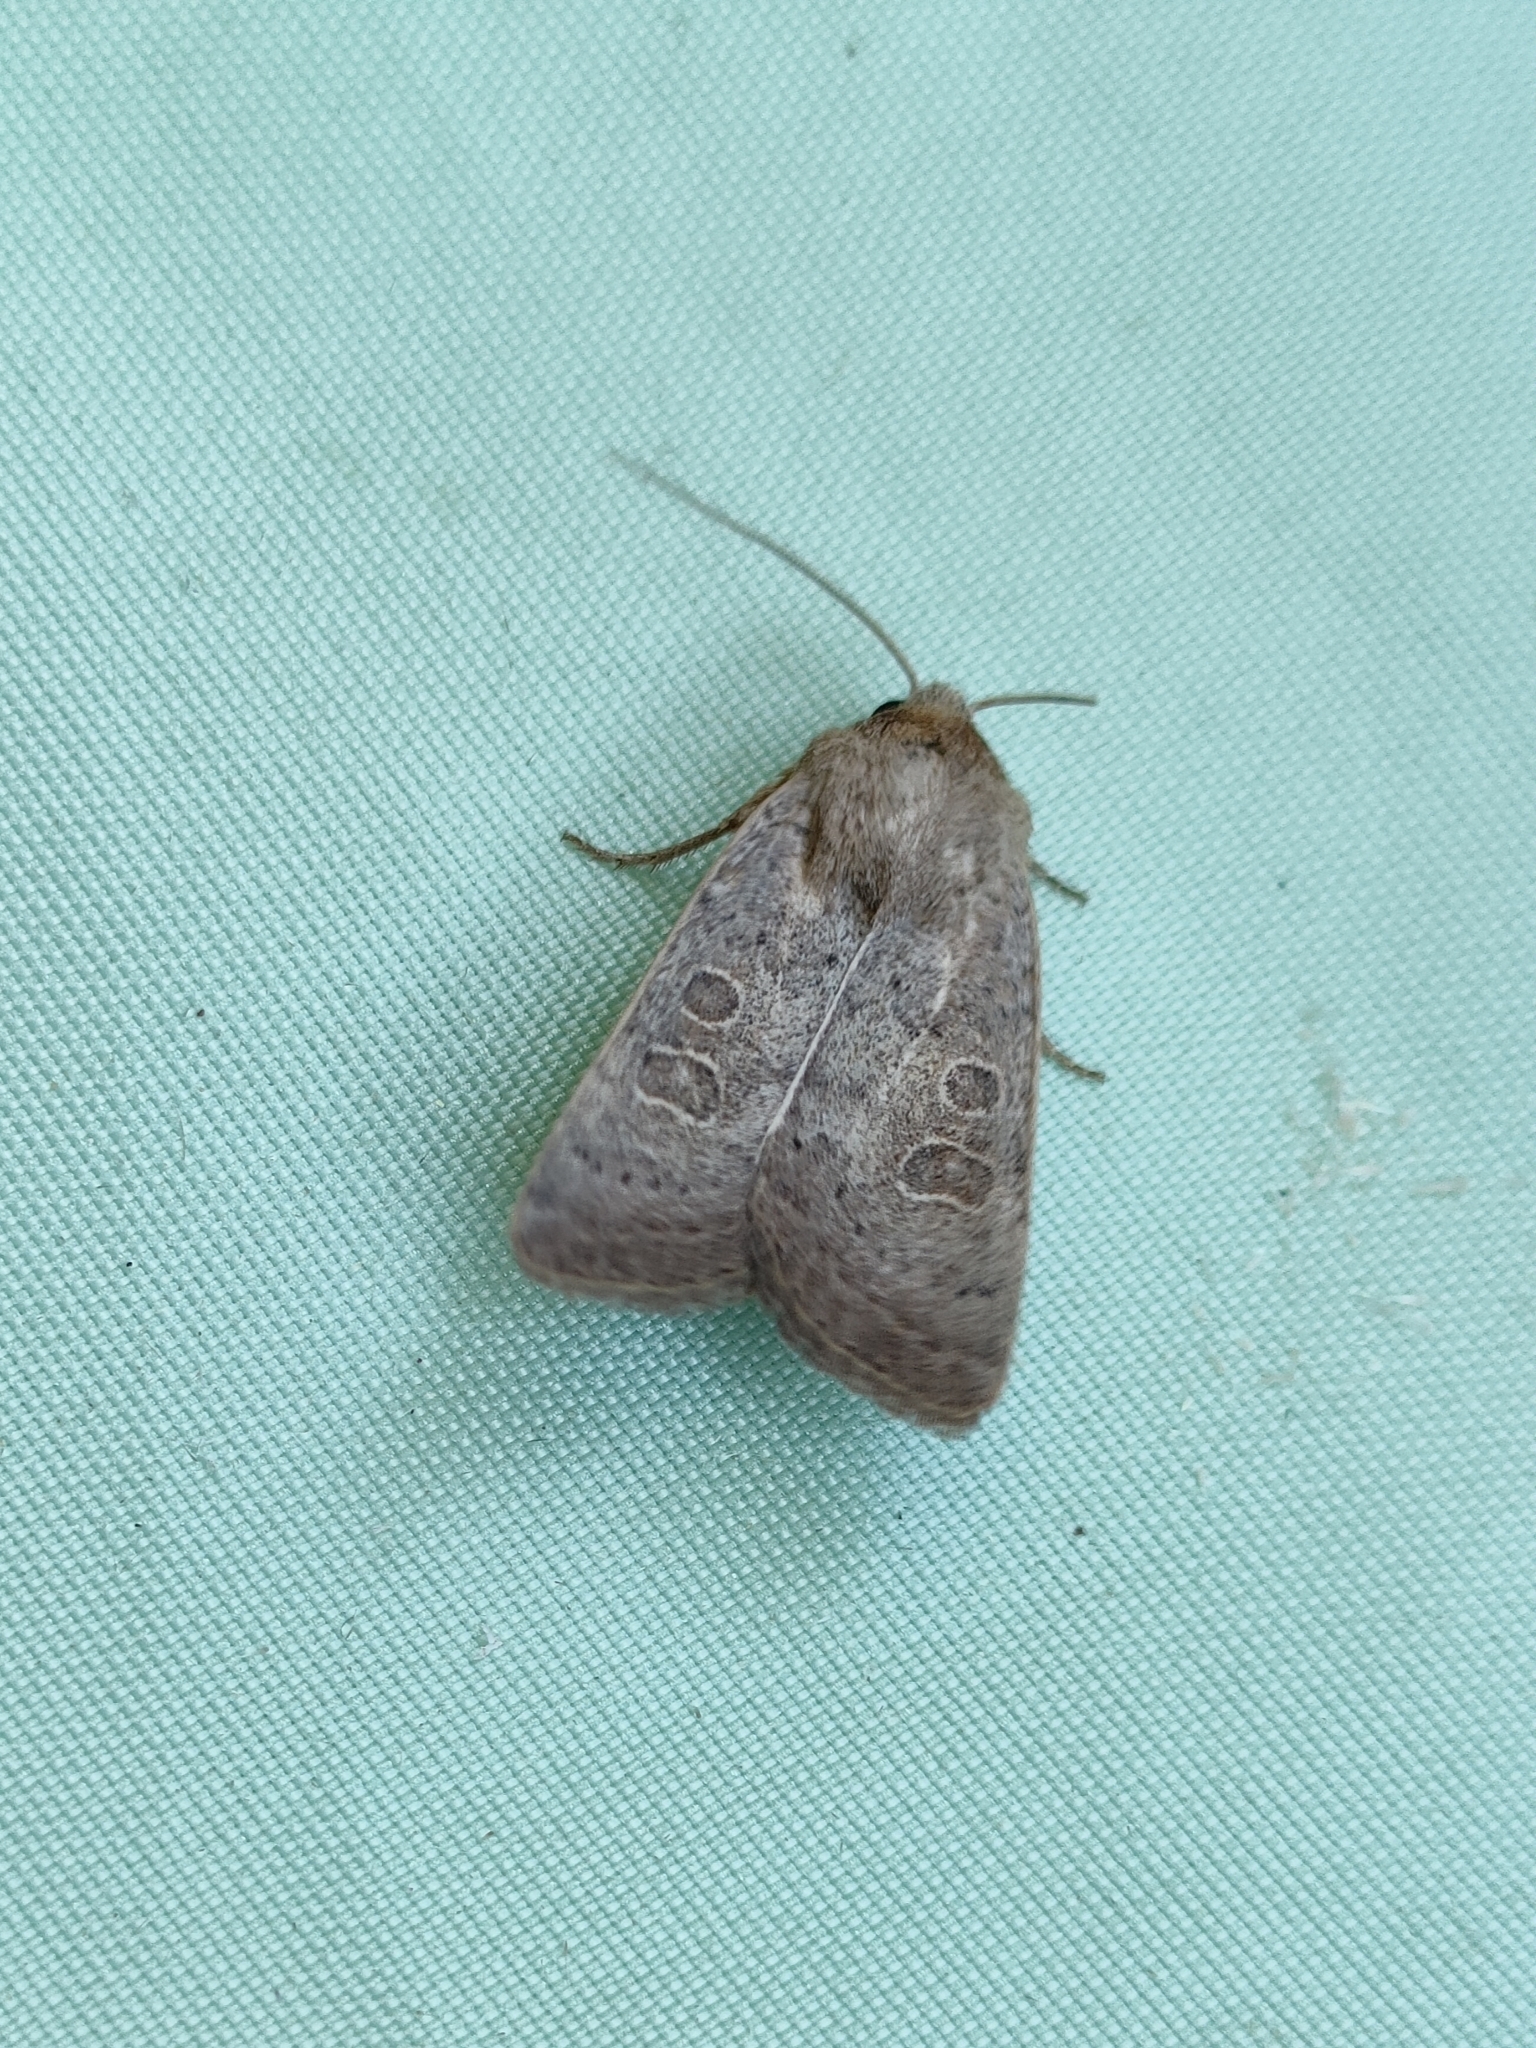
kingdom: Animalia
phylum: Arthropoda
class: Insecta
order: Lepidoptera
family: Noctuidae
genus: Hoplodrina
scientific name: Hoplodrina ambigua
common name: Vine's rustic
